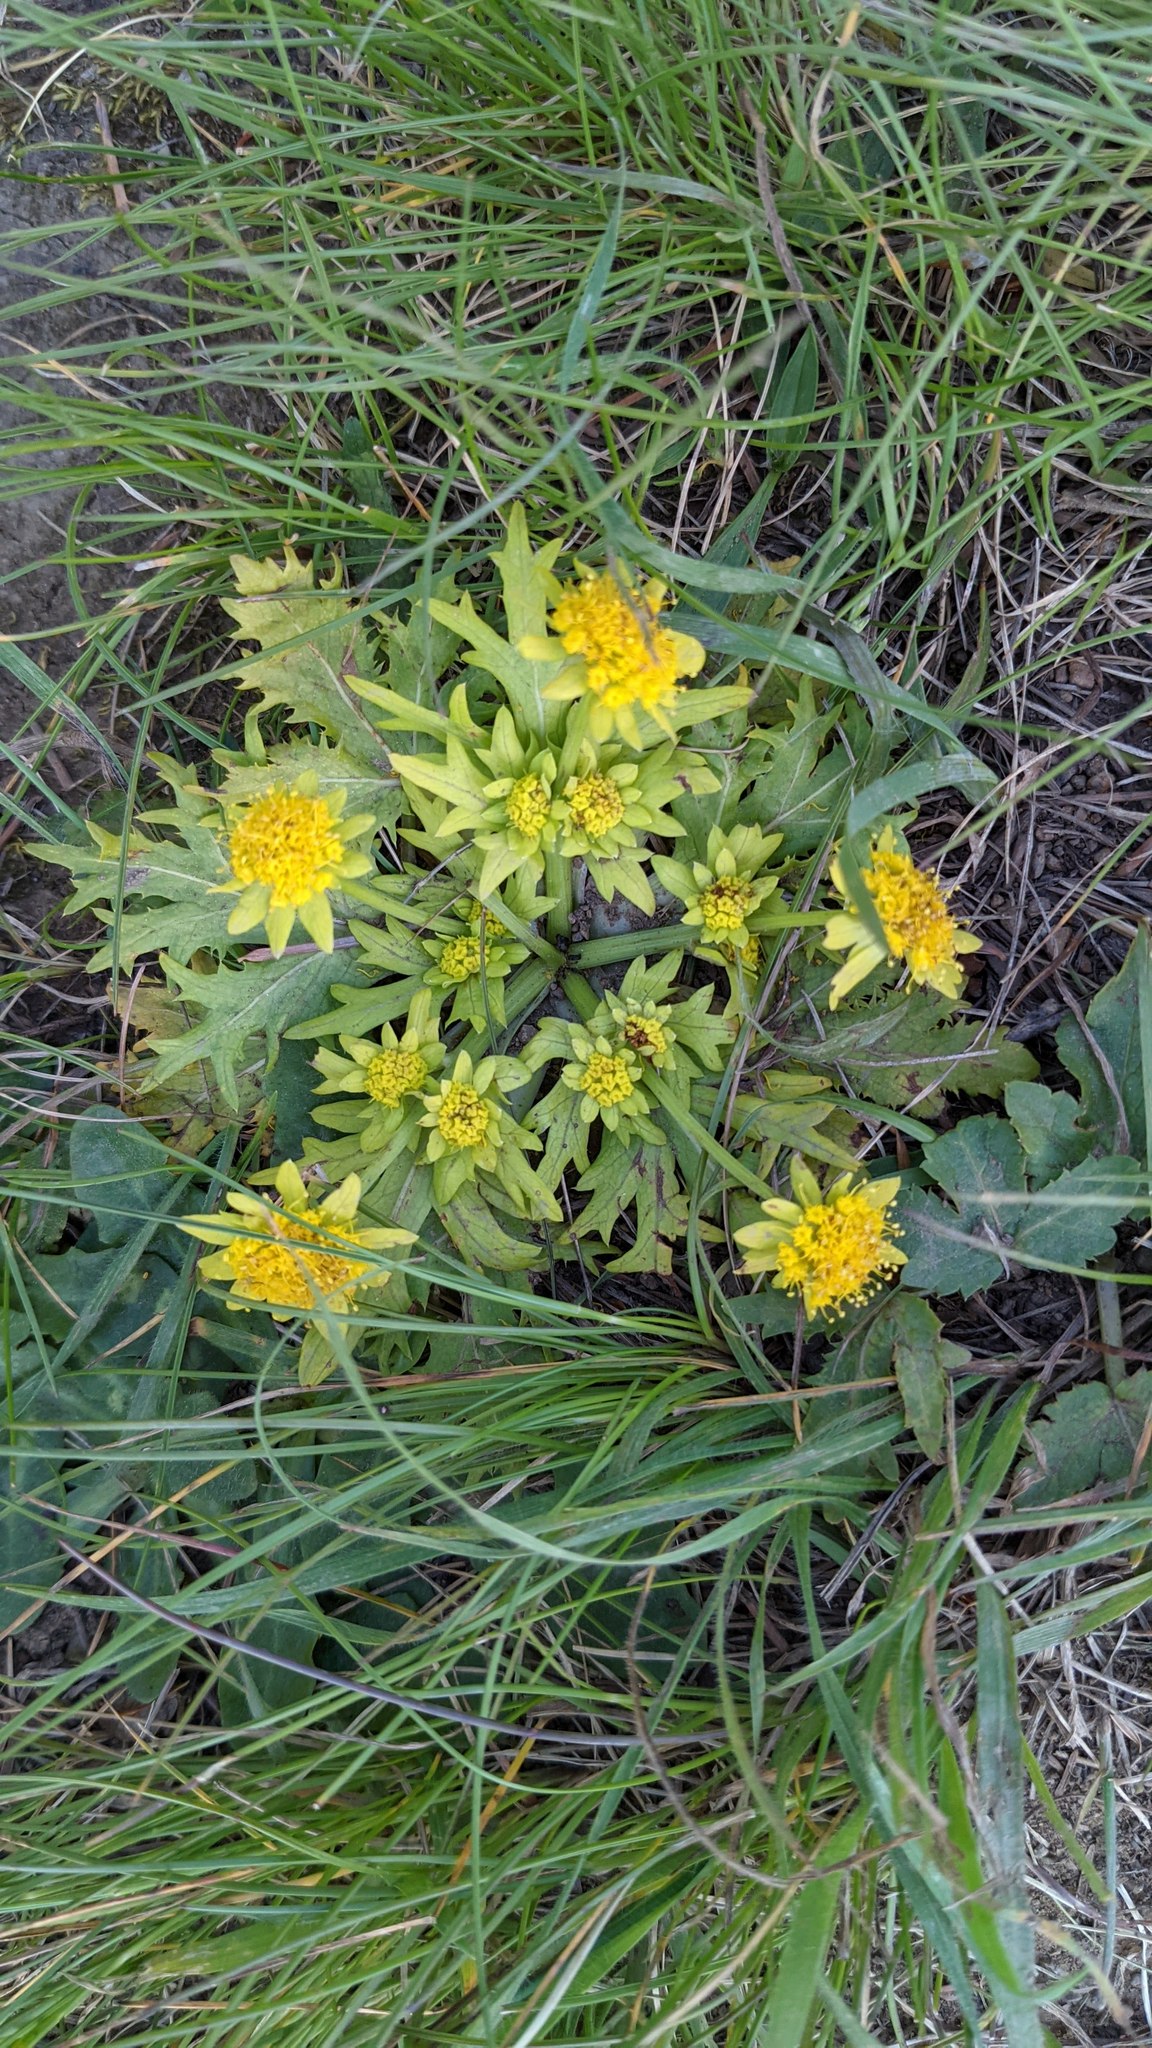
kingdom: Plantae
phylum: Tracheophyta
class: Magnoliopsida
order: Apiales
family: Apiaceae
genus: Sanicula
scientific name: Sanicula arctopoides
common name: Footsteps-of-spring
